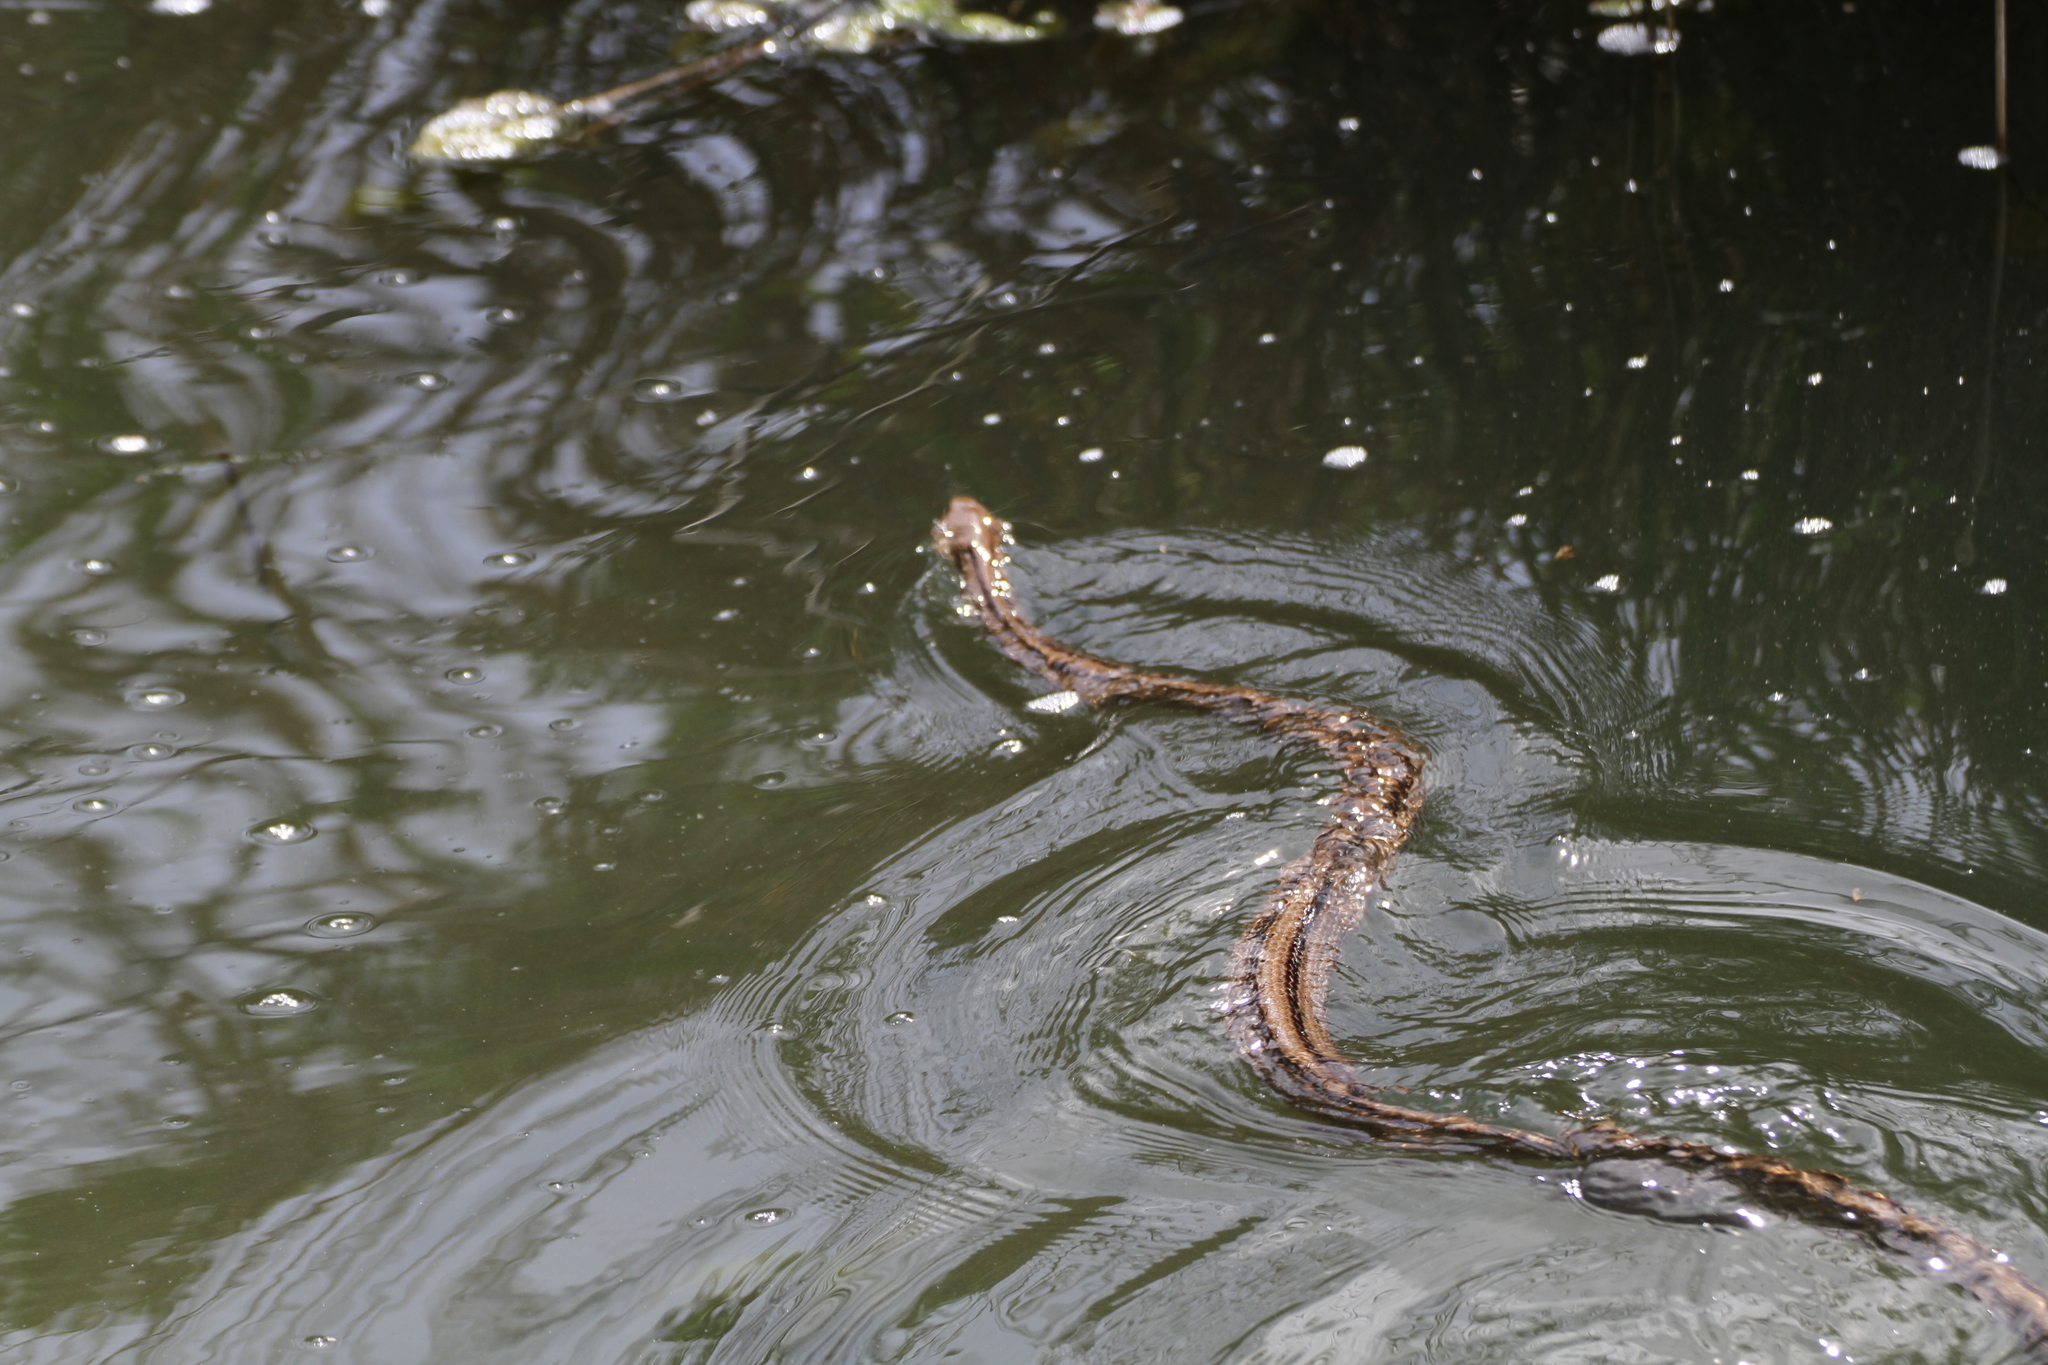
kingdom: Animalia
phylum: Chordata
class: Squamata
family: Colubridae
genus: Zamenis
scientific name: Zamenis scalaris
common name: Ladder snakes
